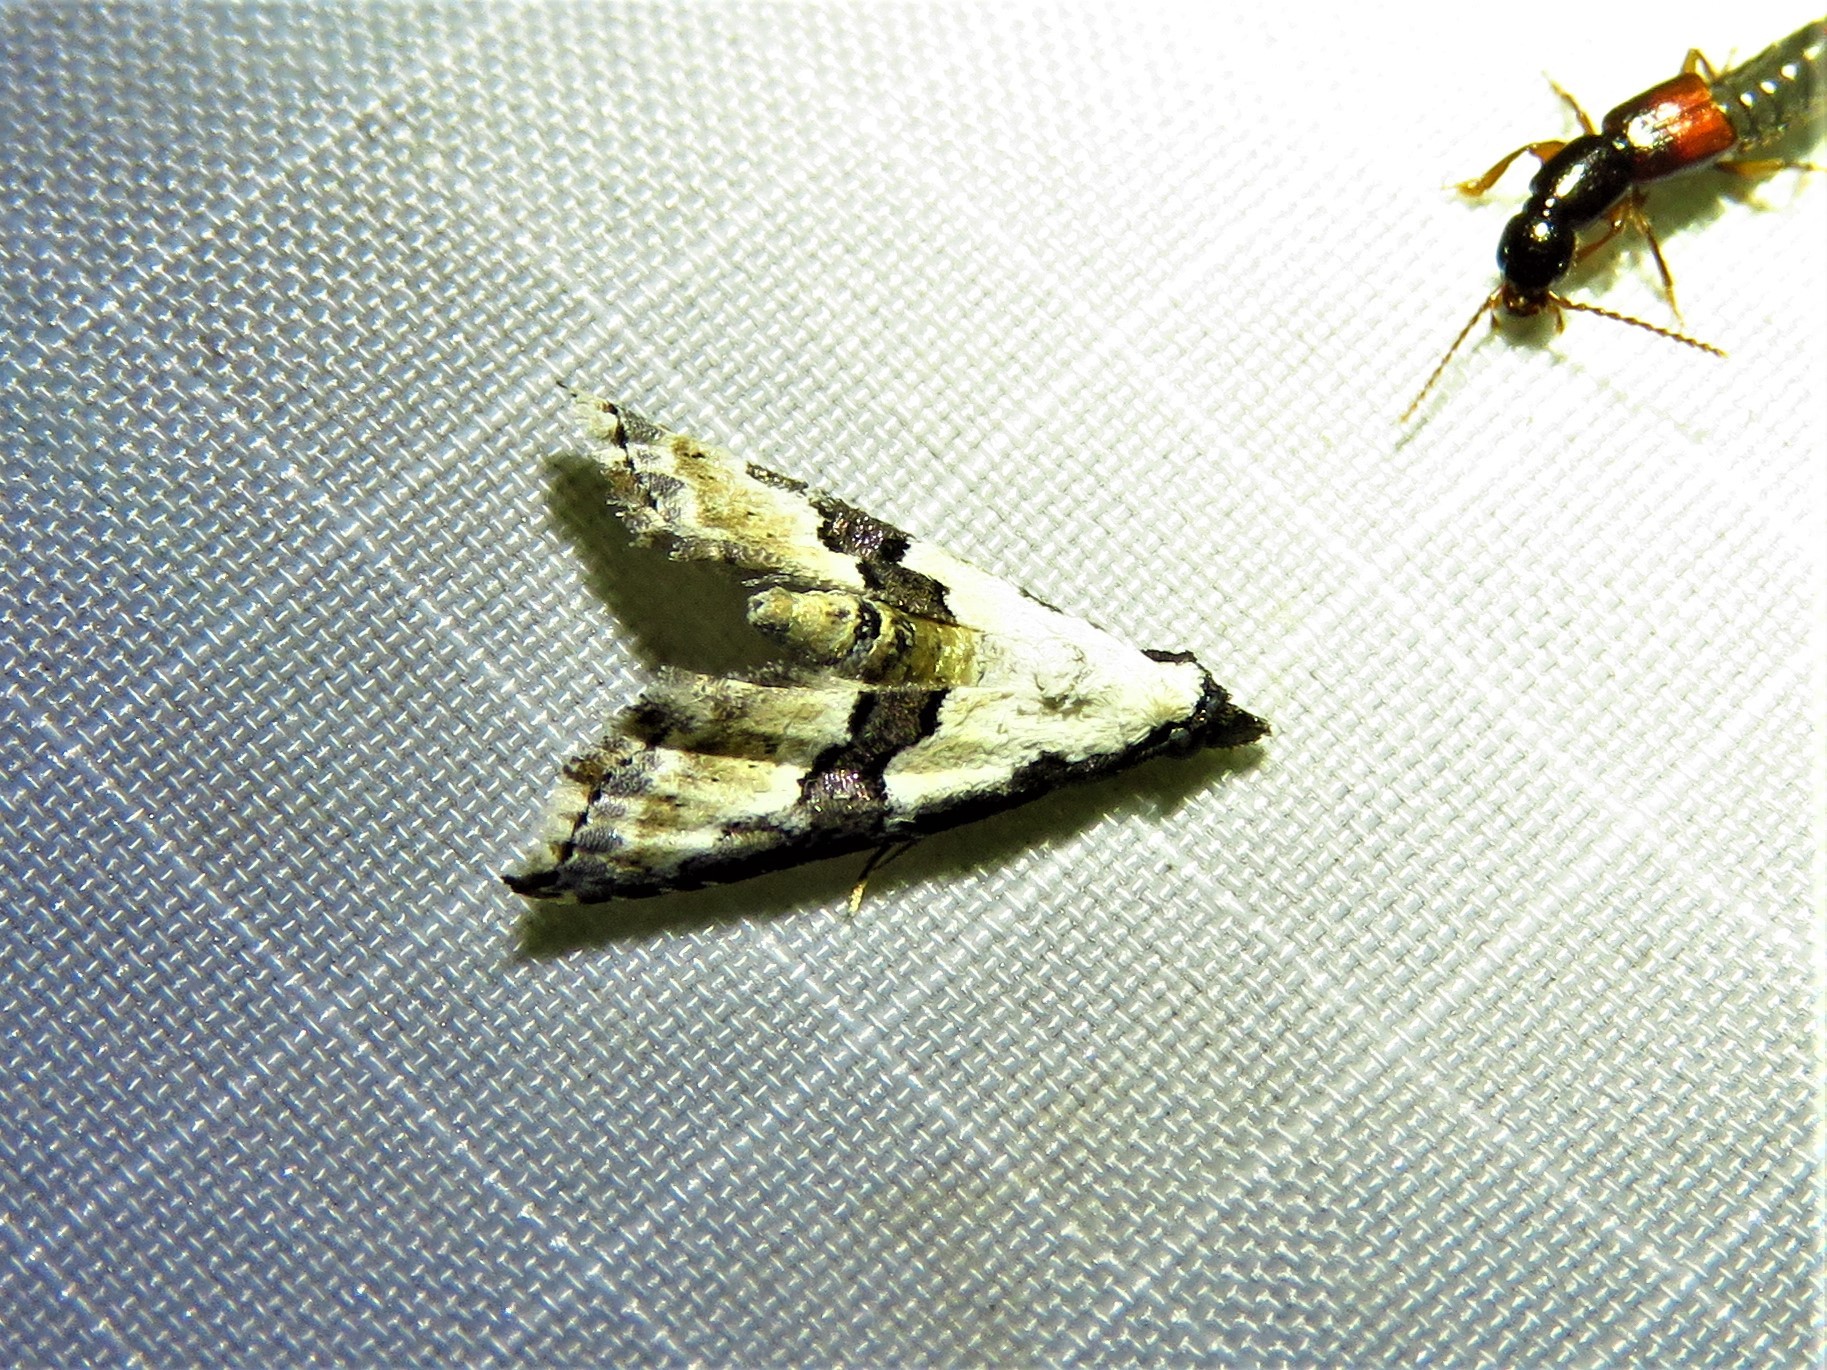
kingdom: Animalia
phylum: Arthropoda
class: Insecta
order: Lepidoptera
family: Noctuidae
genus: Nigetia
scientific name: Nigetia formosalis
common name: Thin-winged owlet
